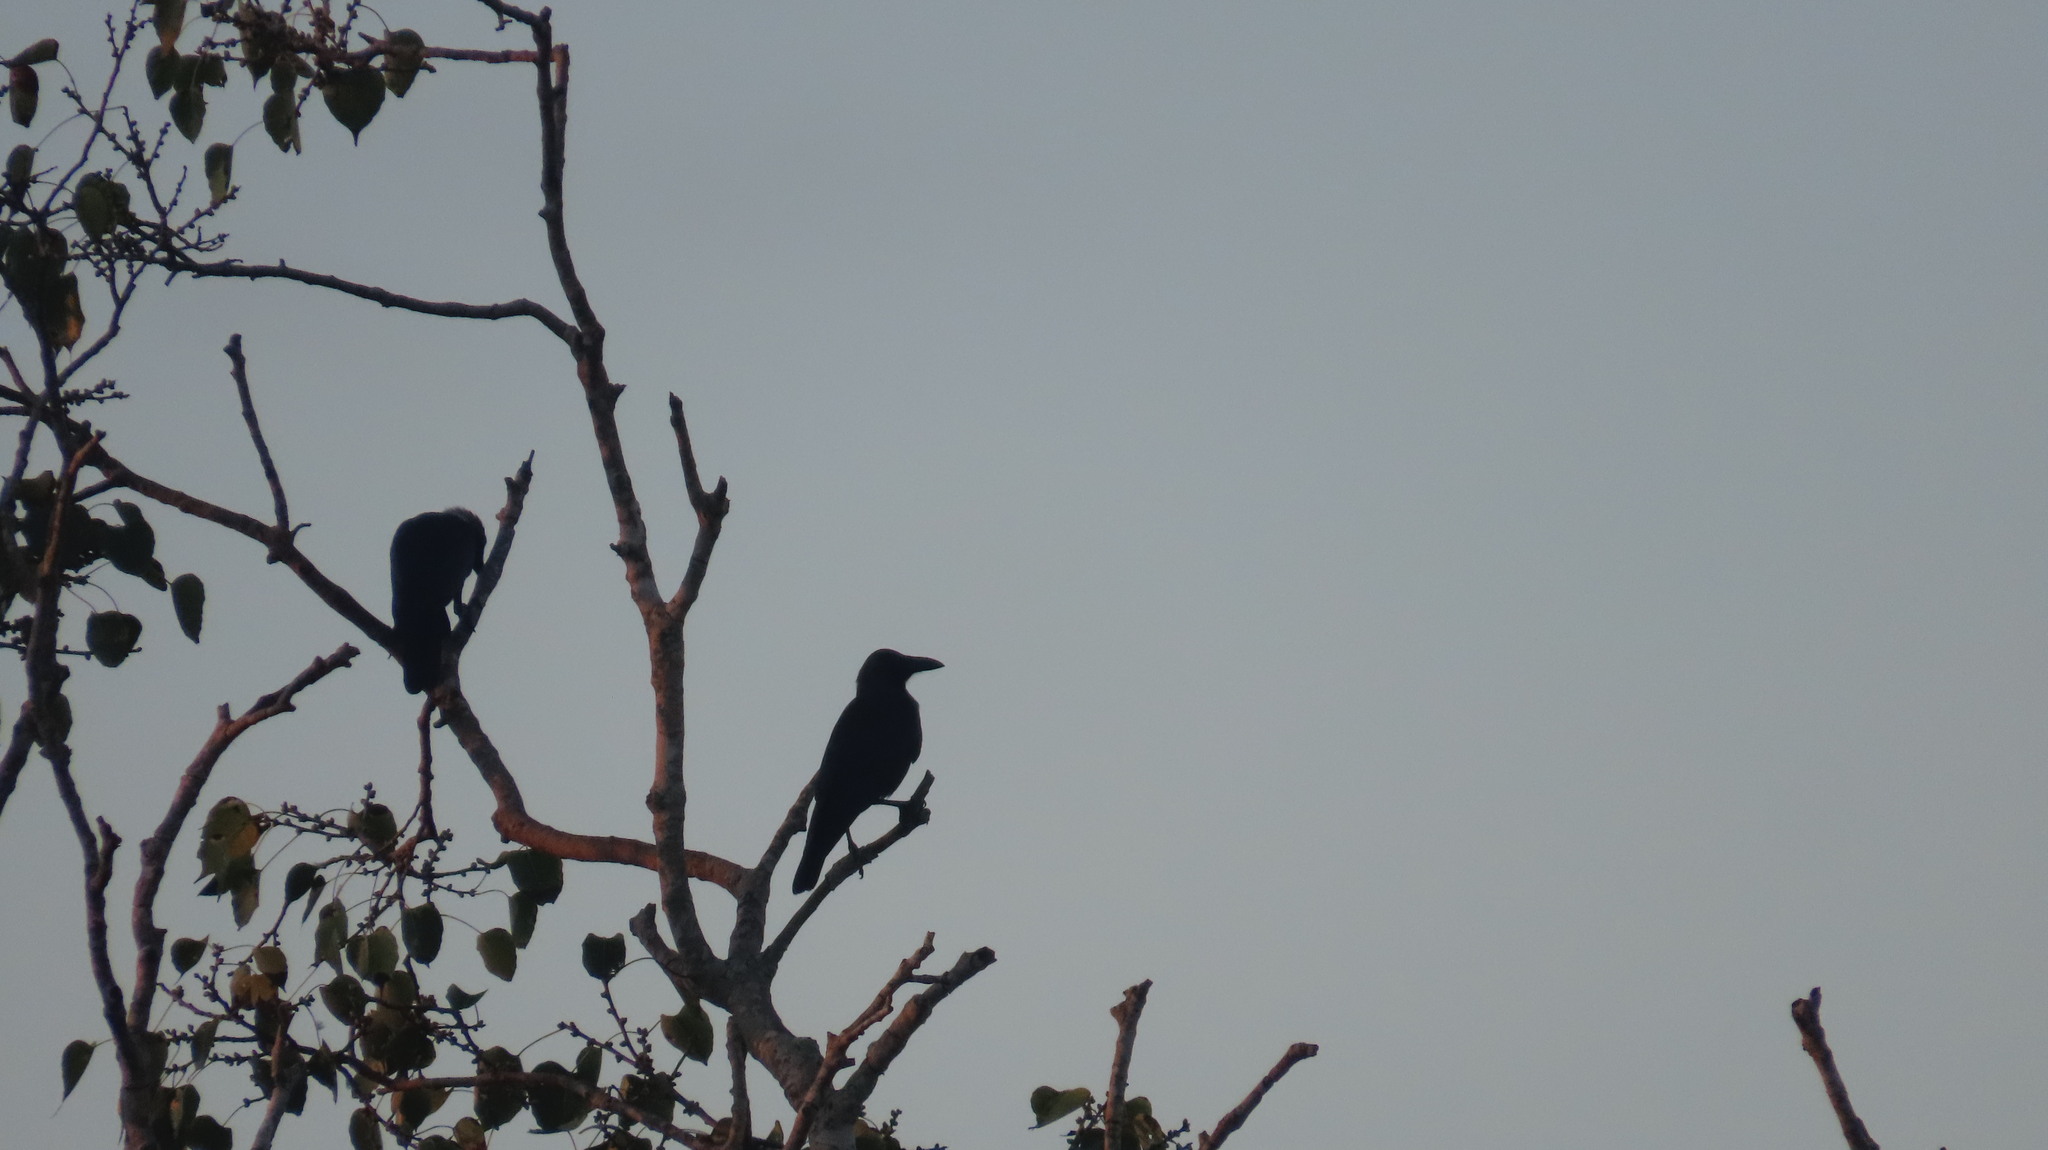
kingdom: Animalia
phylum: Chordata
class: Aves
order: Passeriformes
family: Corvidae
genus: Corvus
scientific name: Corvus splendens
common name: House crow
